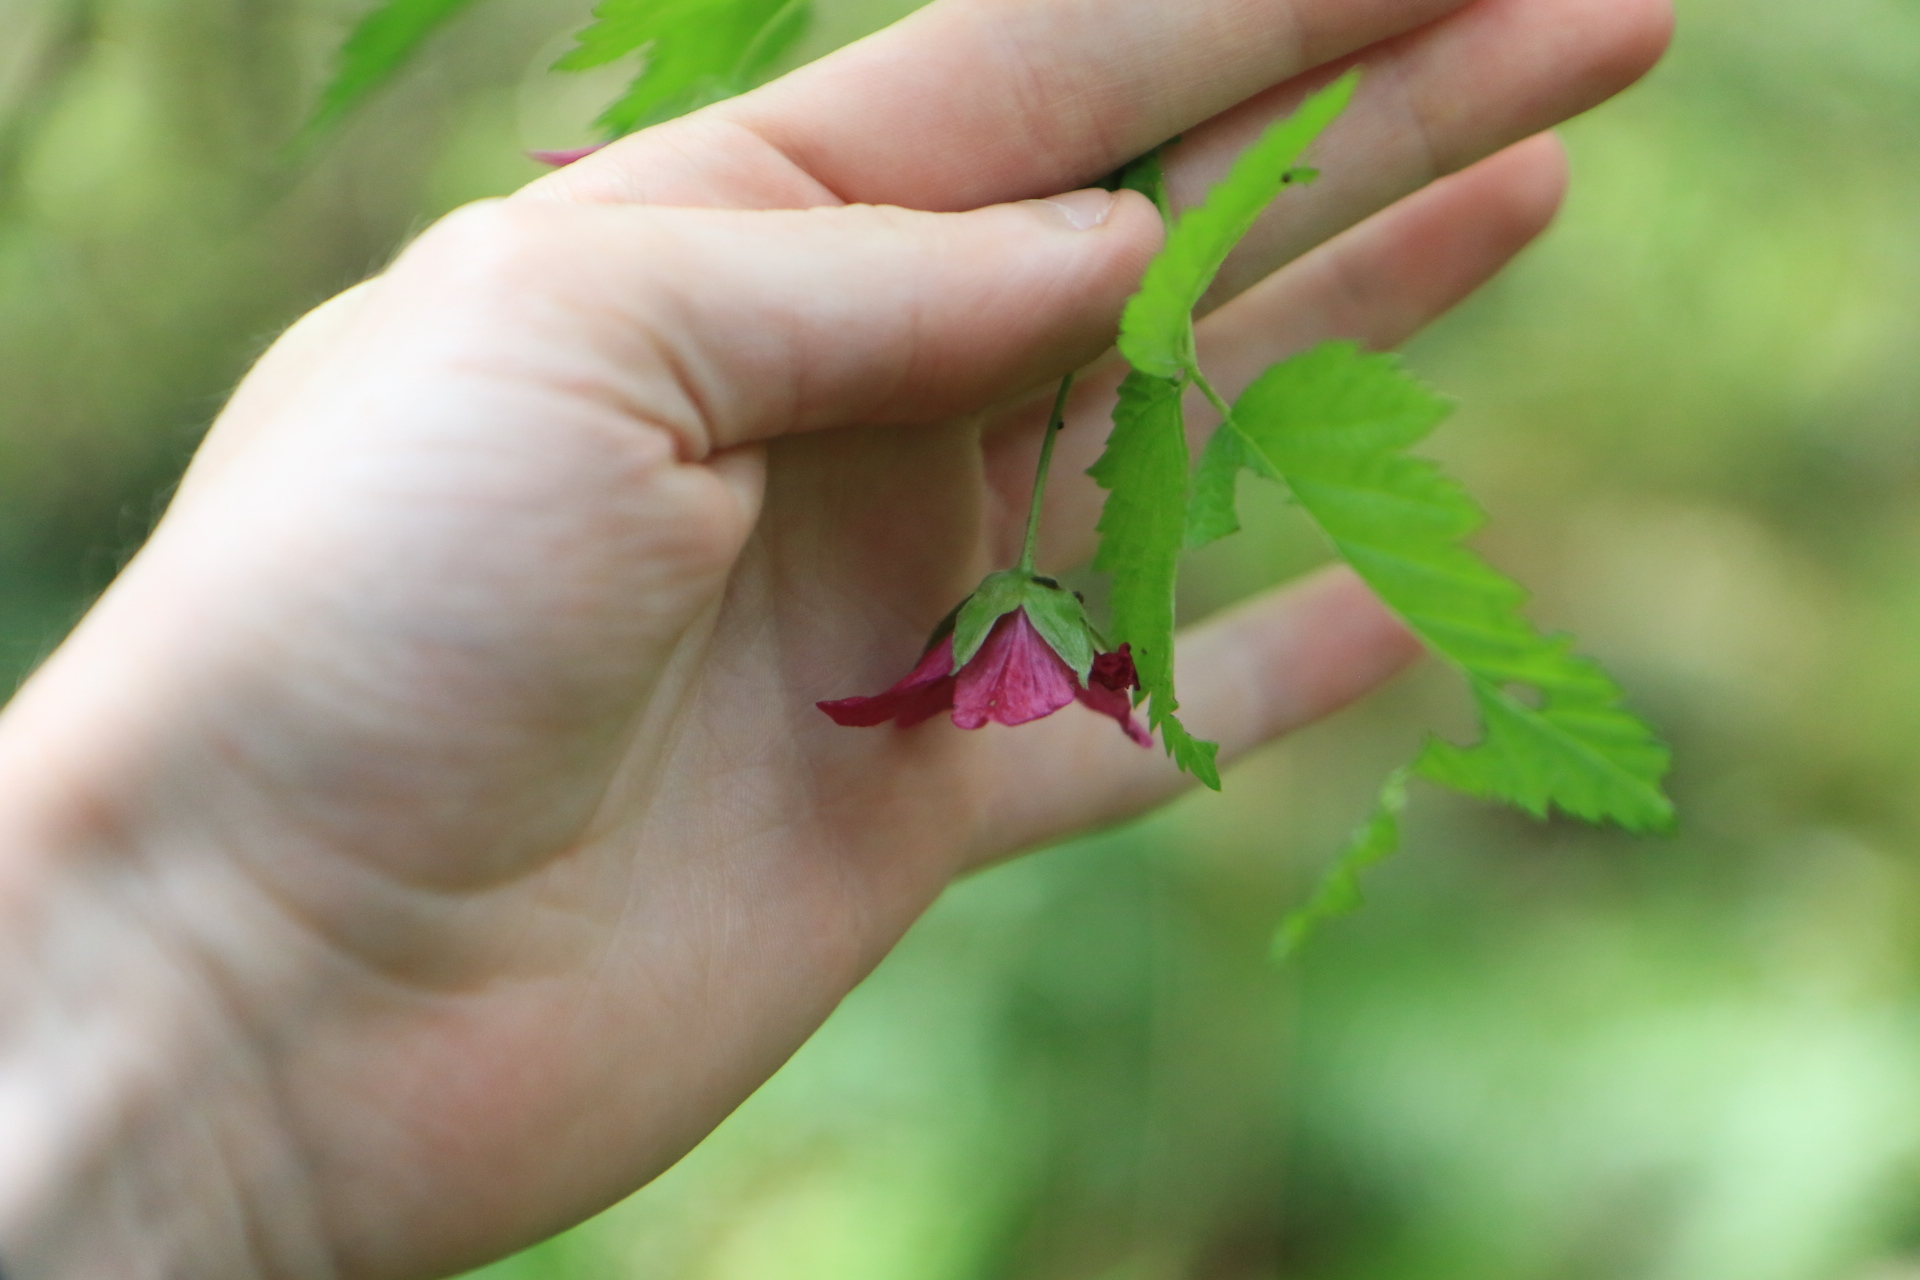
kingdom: Plantae
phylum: Tracheophyta
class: Magnoliopsida
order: Rosales
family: Rosaceae
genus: Rubus
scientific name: Rubus spectabilis
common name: Salmonberry
